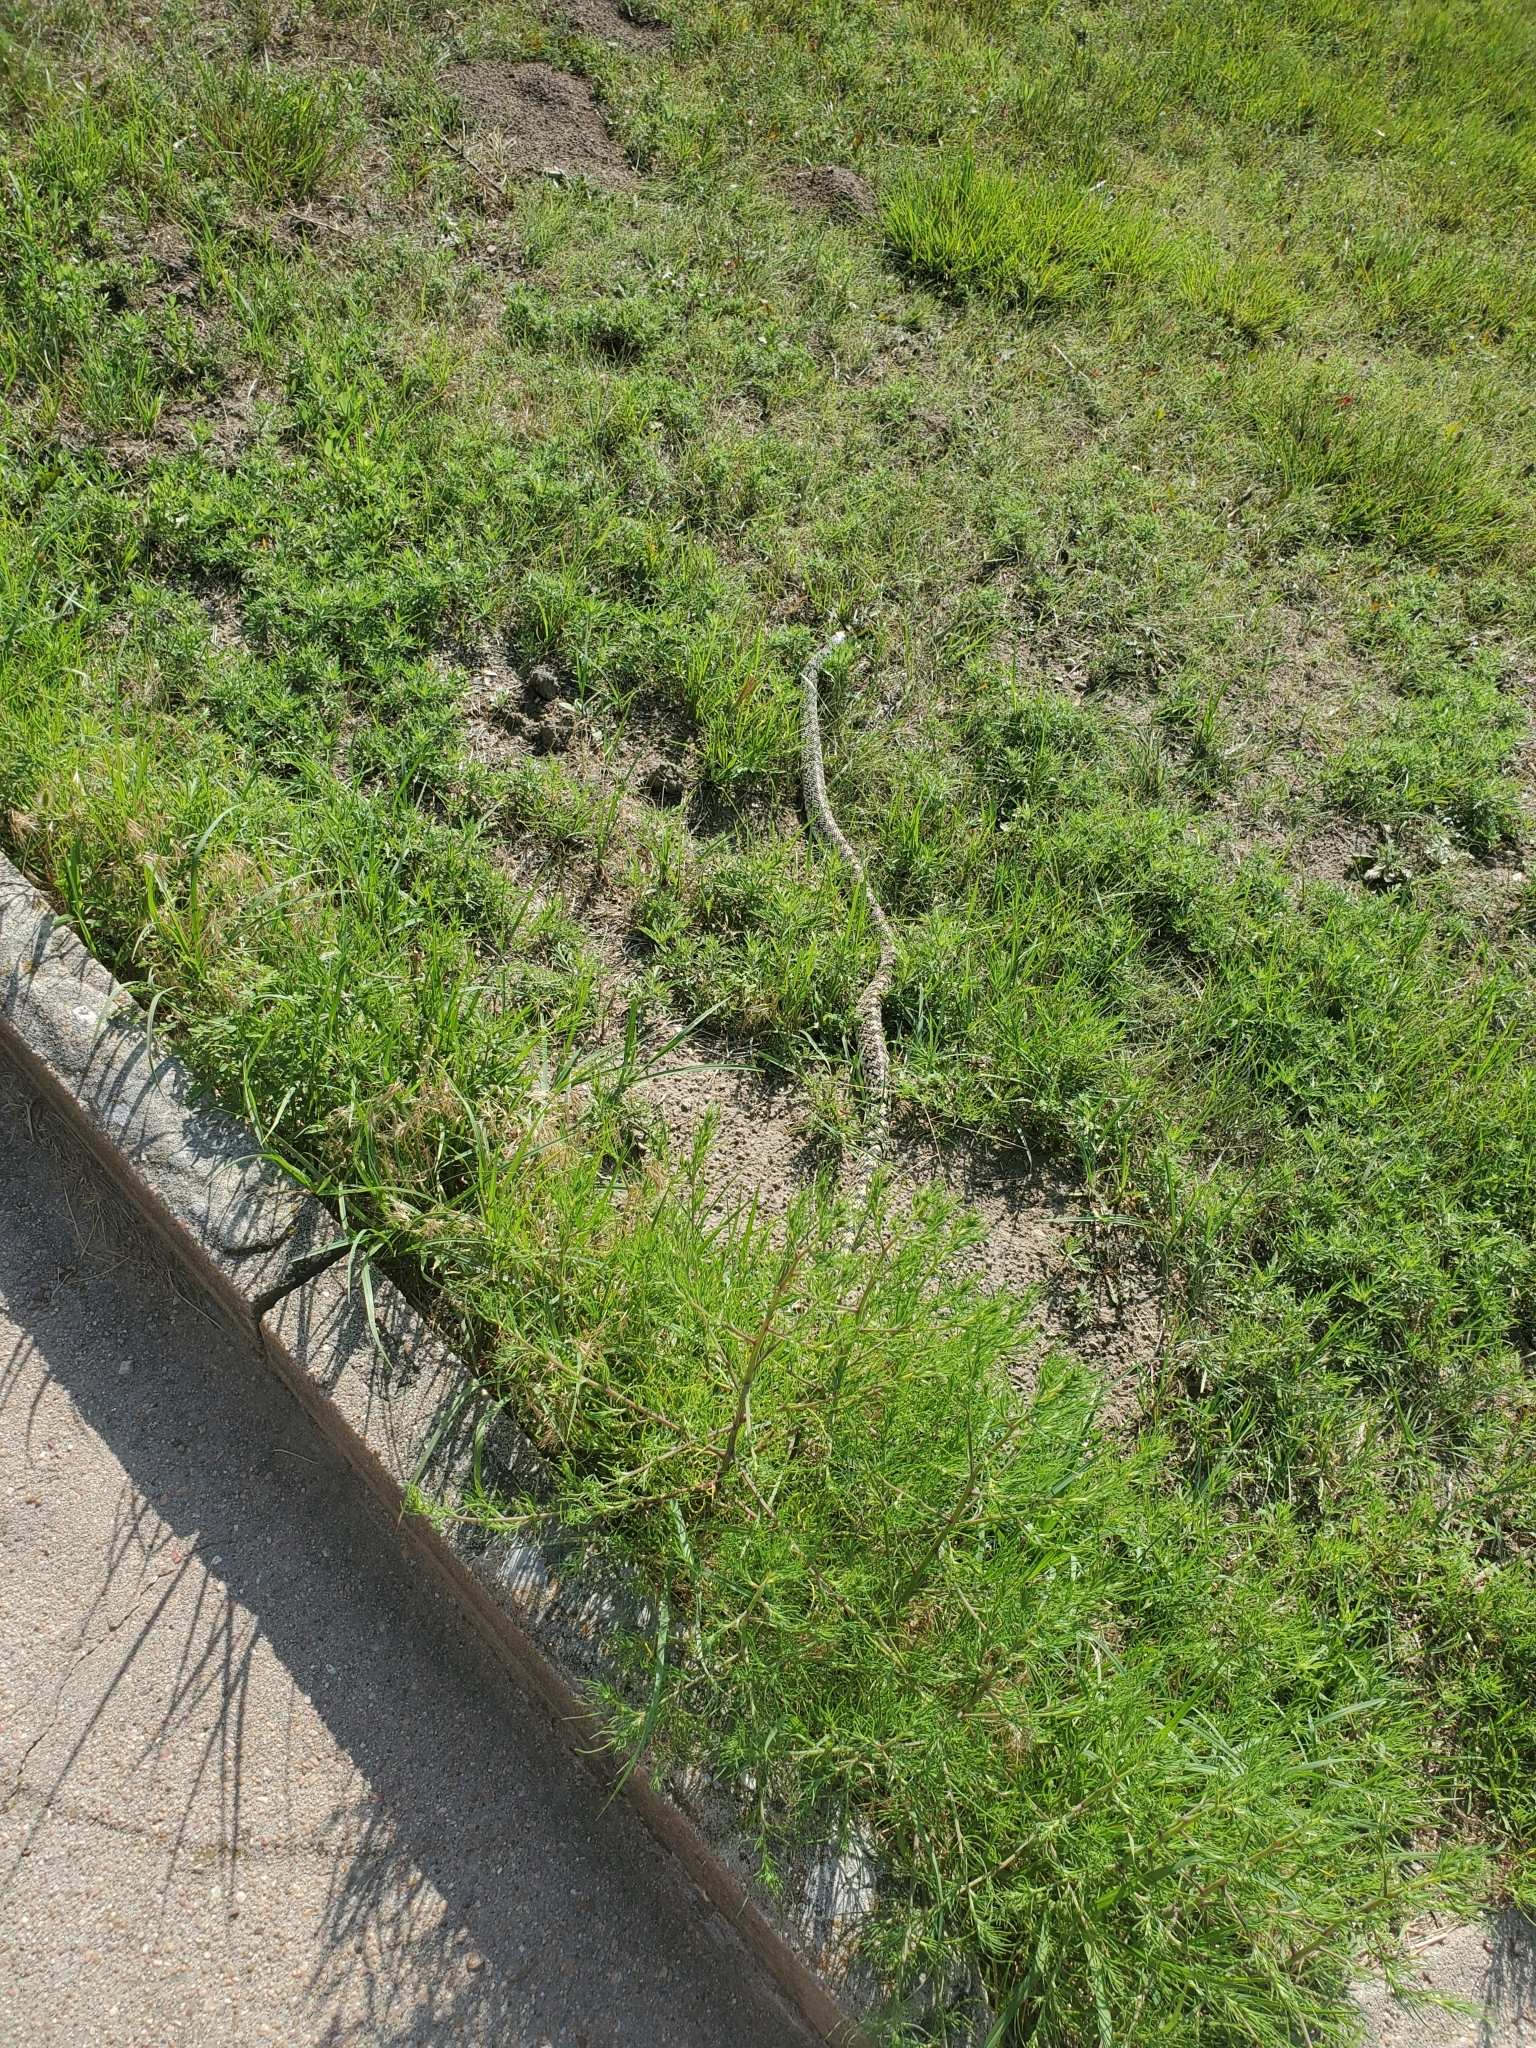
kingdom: Animalia
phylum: Chordata
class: Squamata
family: Colubridae
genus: Pituophis
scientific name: Pituophis catenifer
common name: Gopher snake
